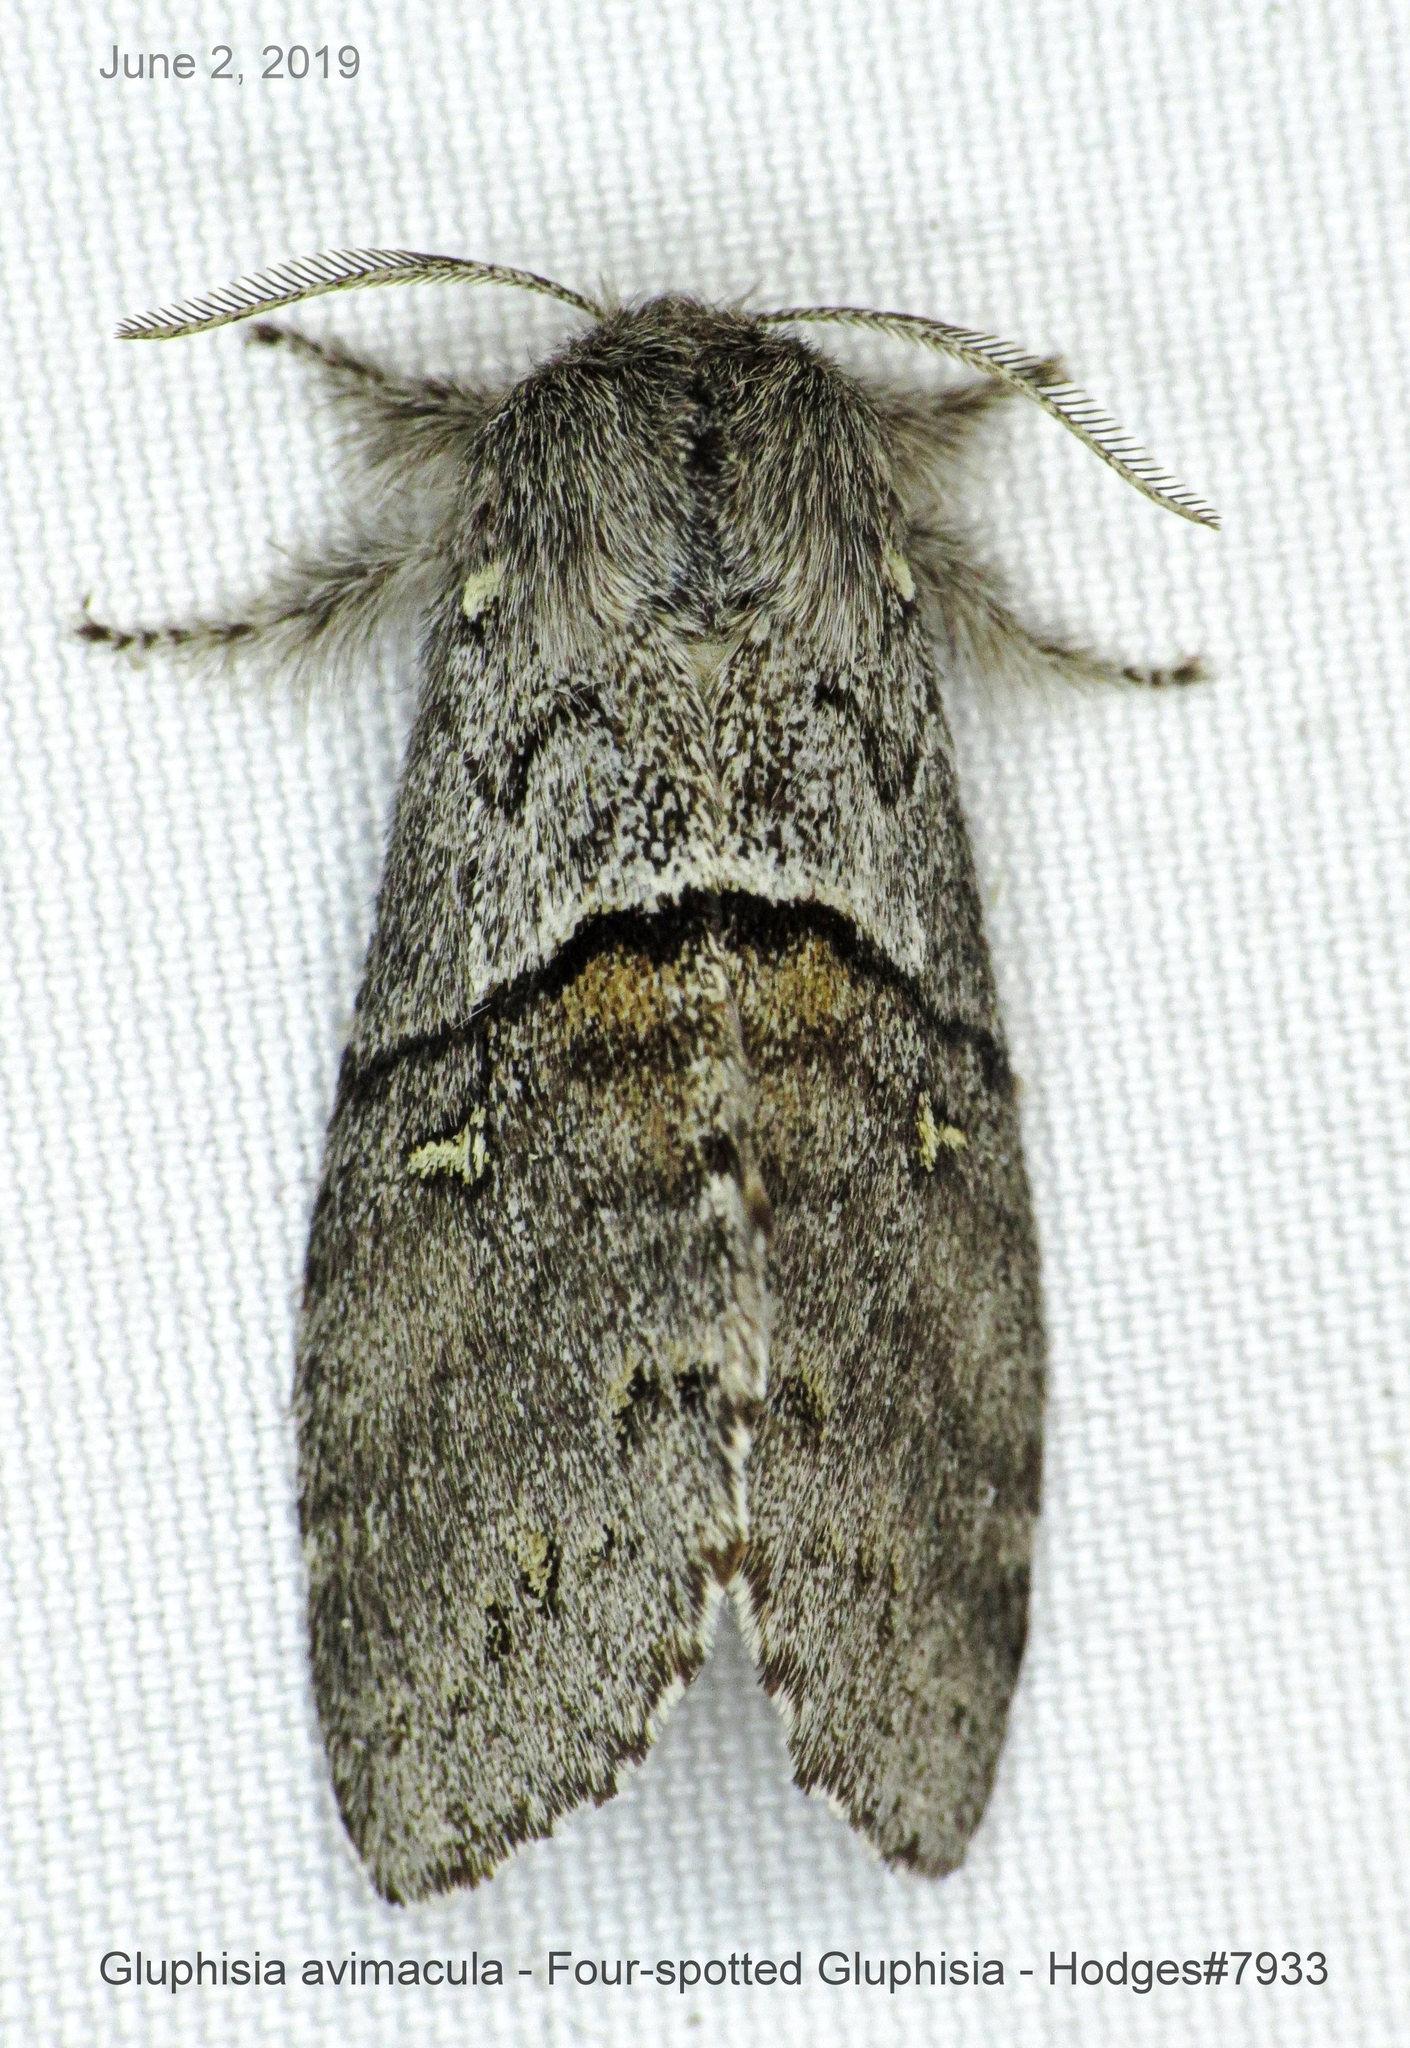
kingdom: Animalia
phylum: Arthropoda
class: Insecta
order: Lepidoptera
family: Notodontidae
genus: Gluphisia
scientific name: Gluphisia avimacula
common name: Four-spotted gluphisia moth
